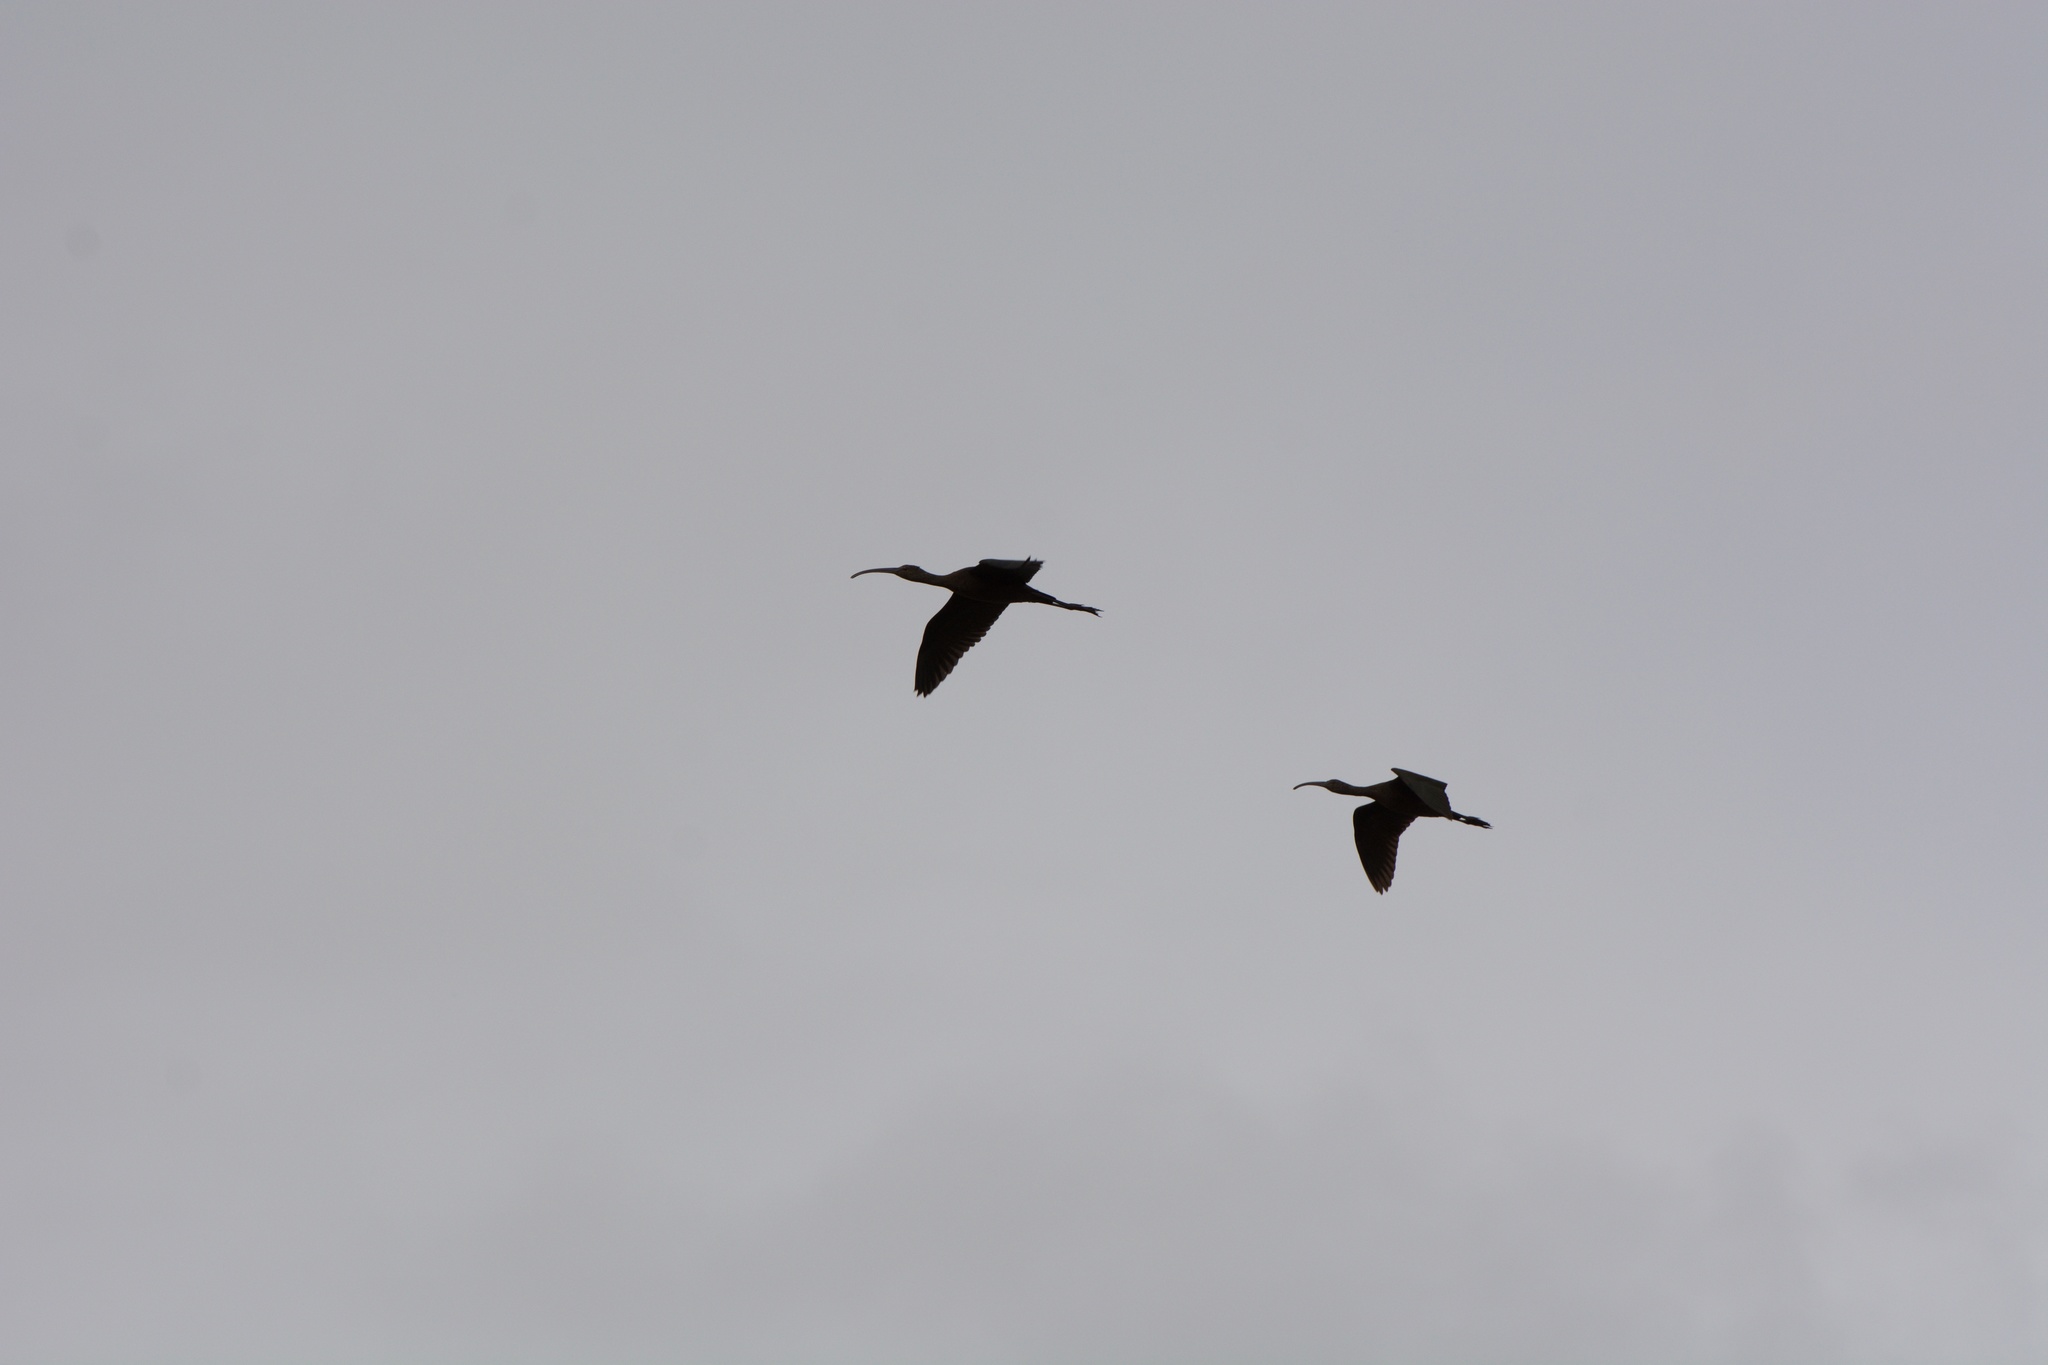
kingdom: Animalia
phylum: Chordata
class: Aves
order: Pelecaniformes
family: Threskiornithidae
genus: Plegadis
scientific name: Plegadis chihi
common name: White-faced ibis
